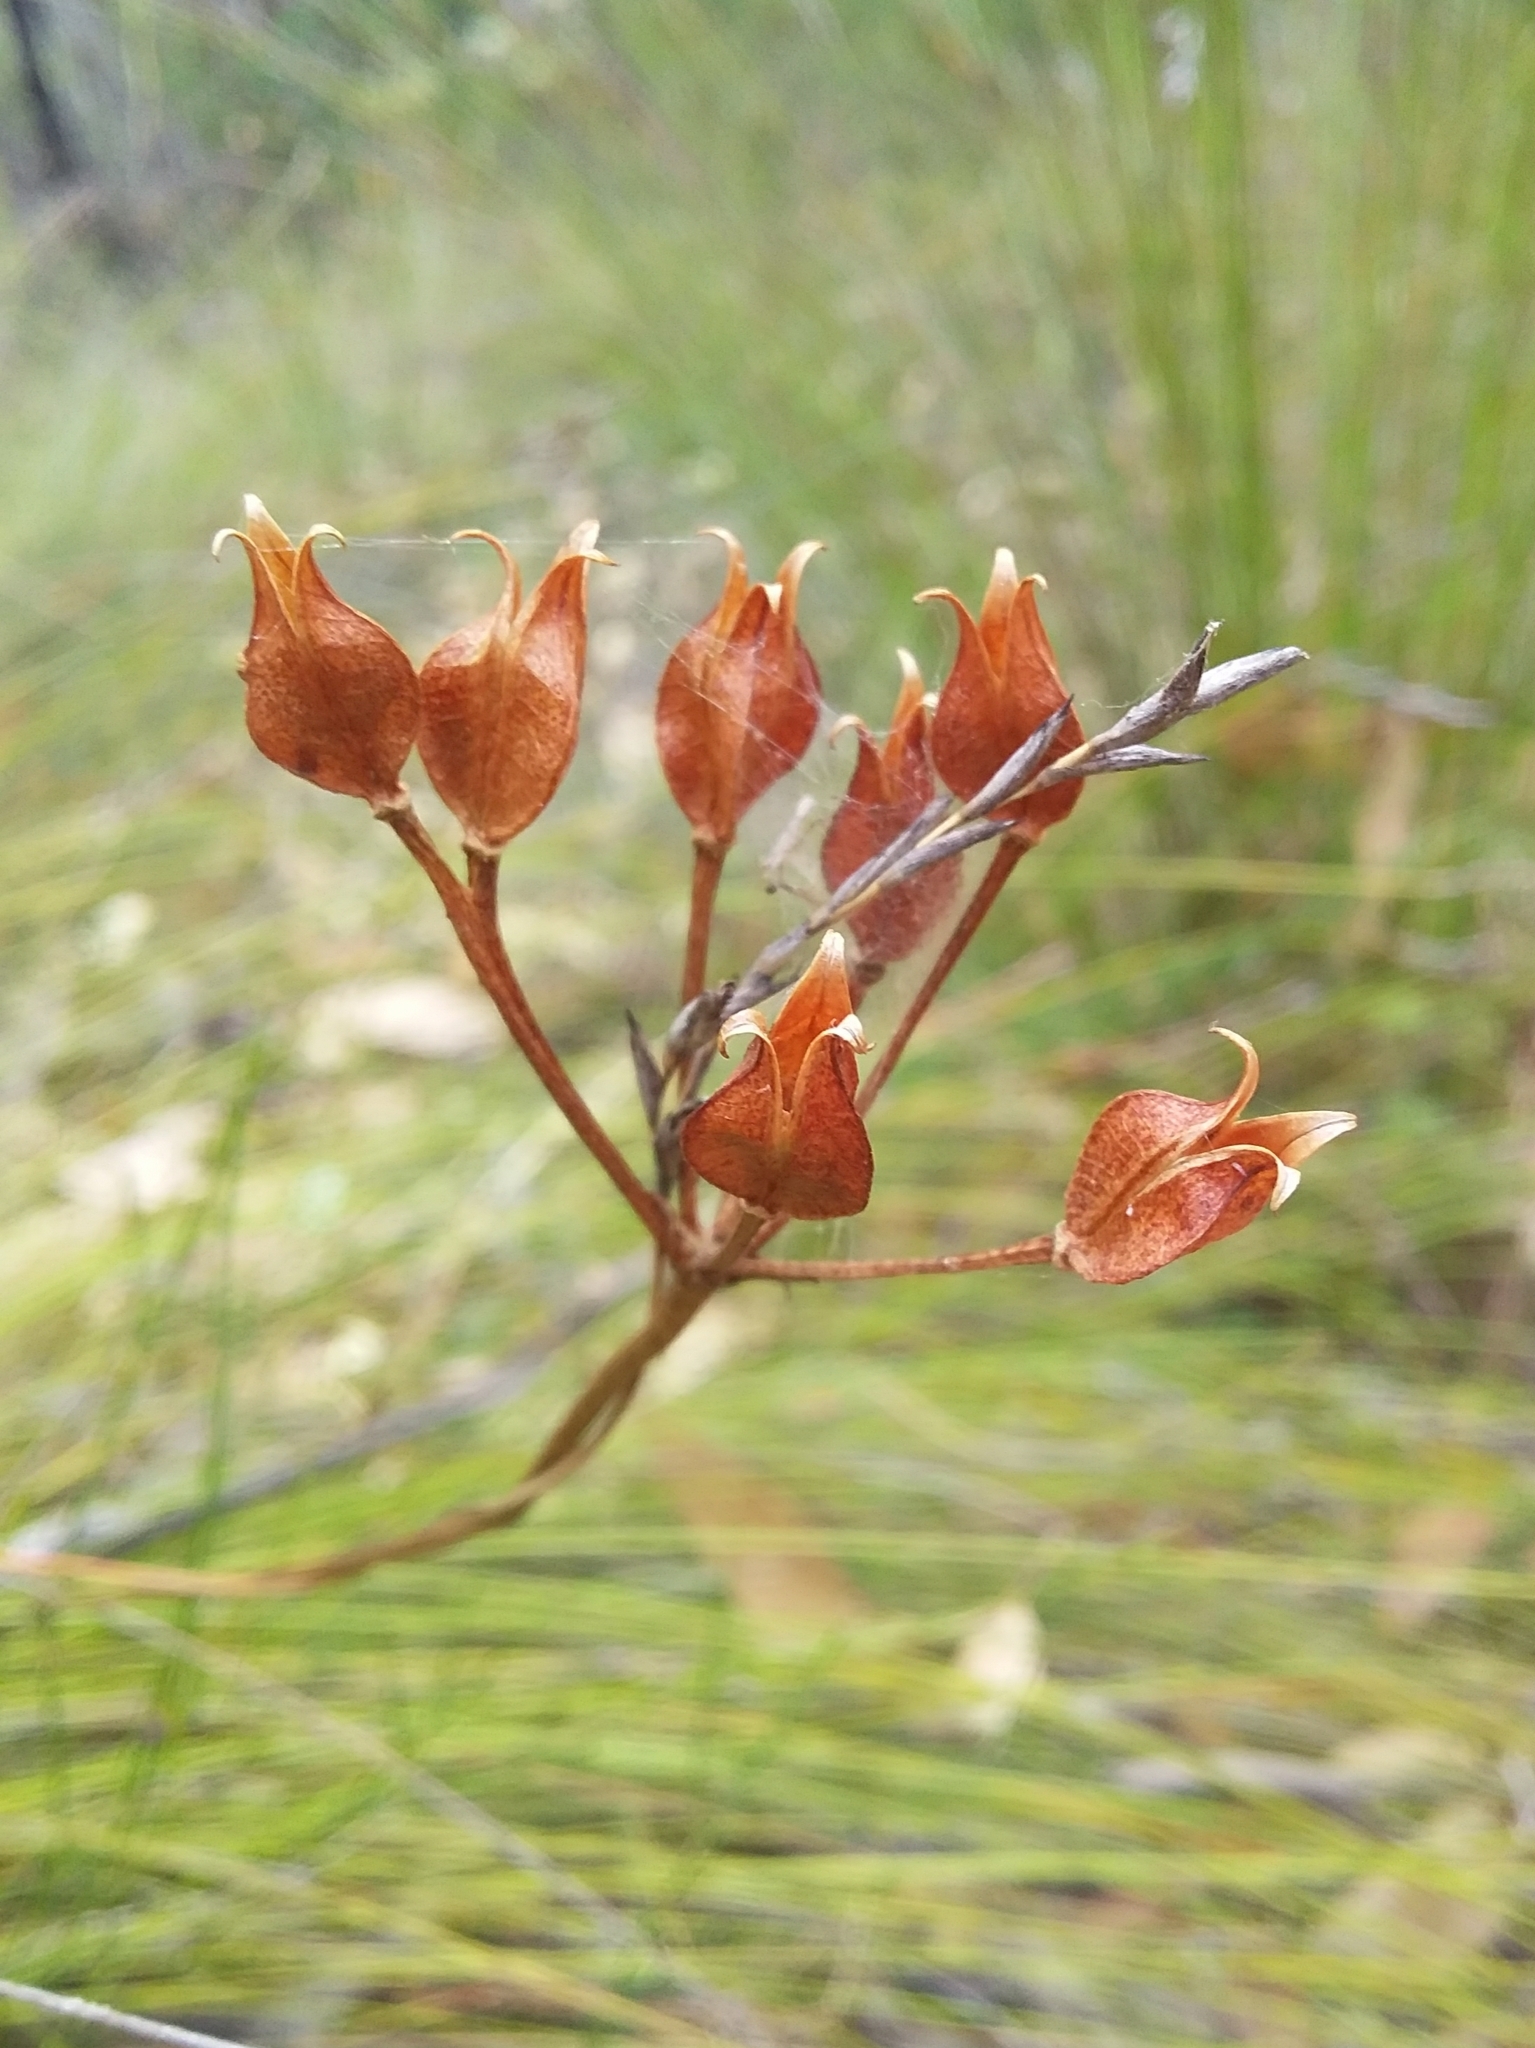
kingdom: Plantae
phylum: Tracheophyta
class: Liliopsida
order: Liliales
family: Colchicaceae
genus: Burchardia
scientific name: Burchardia umbellata
